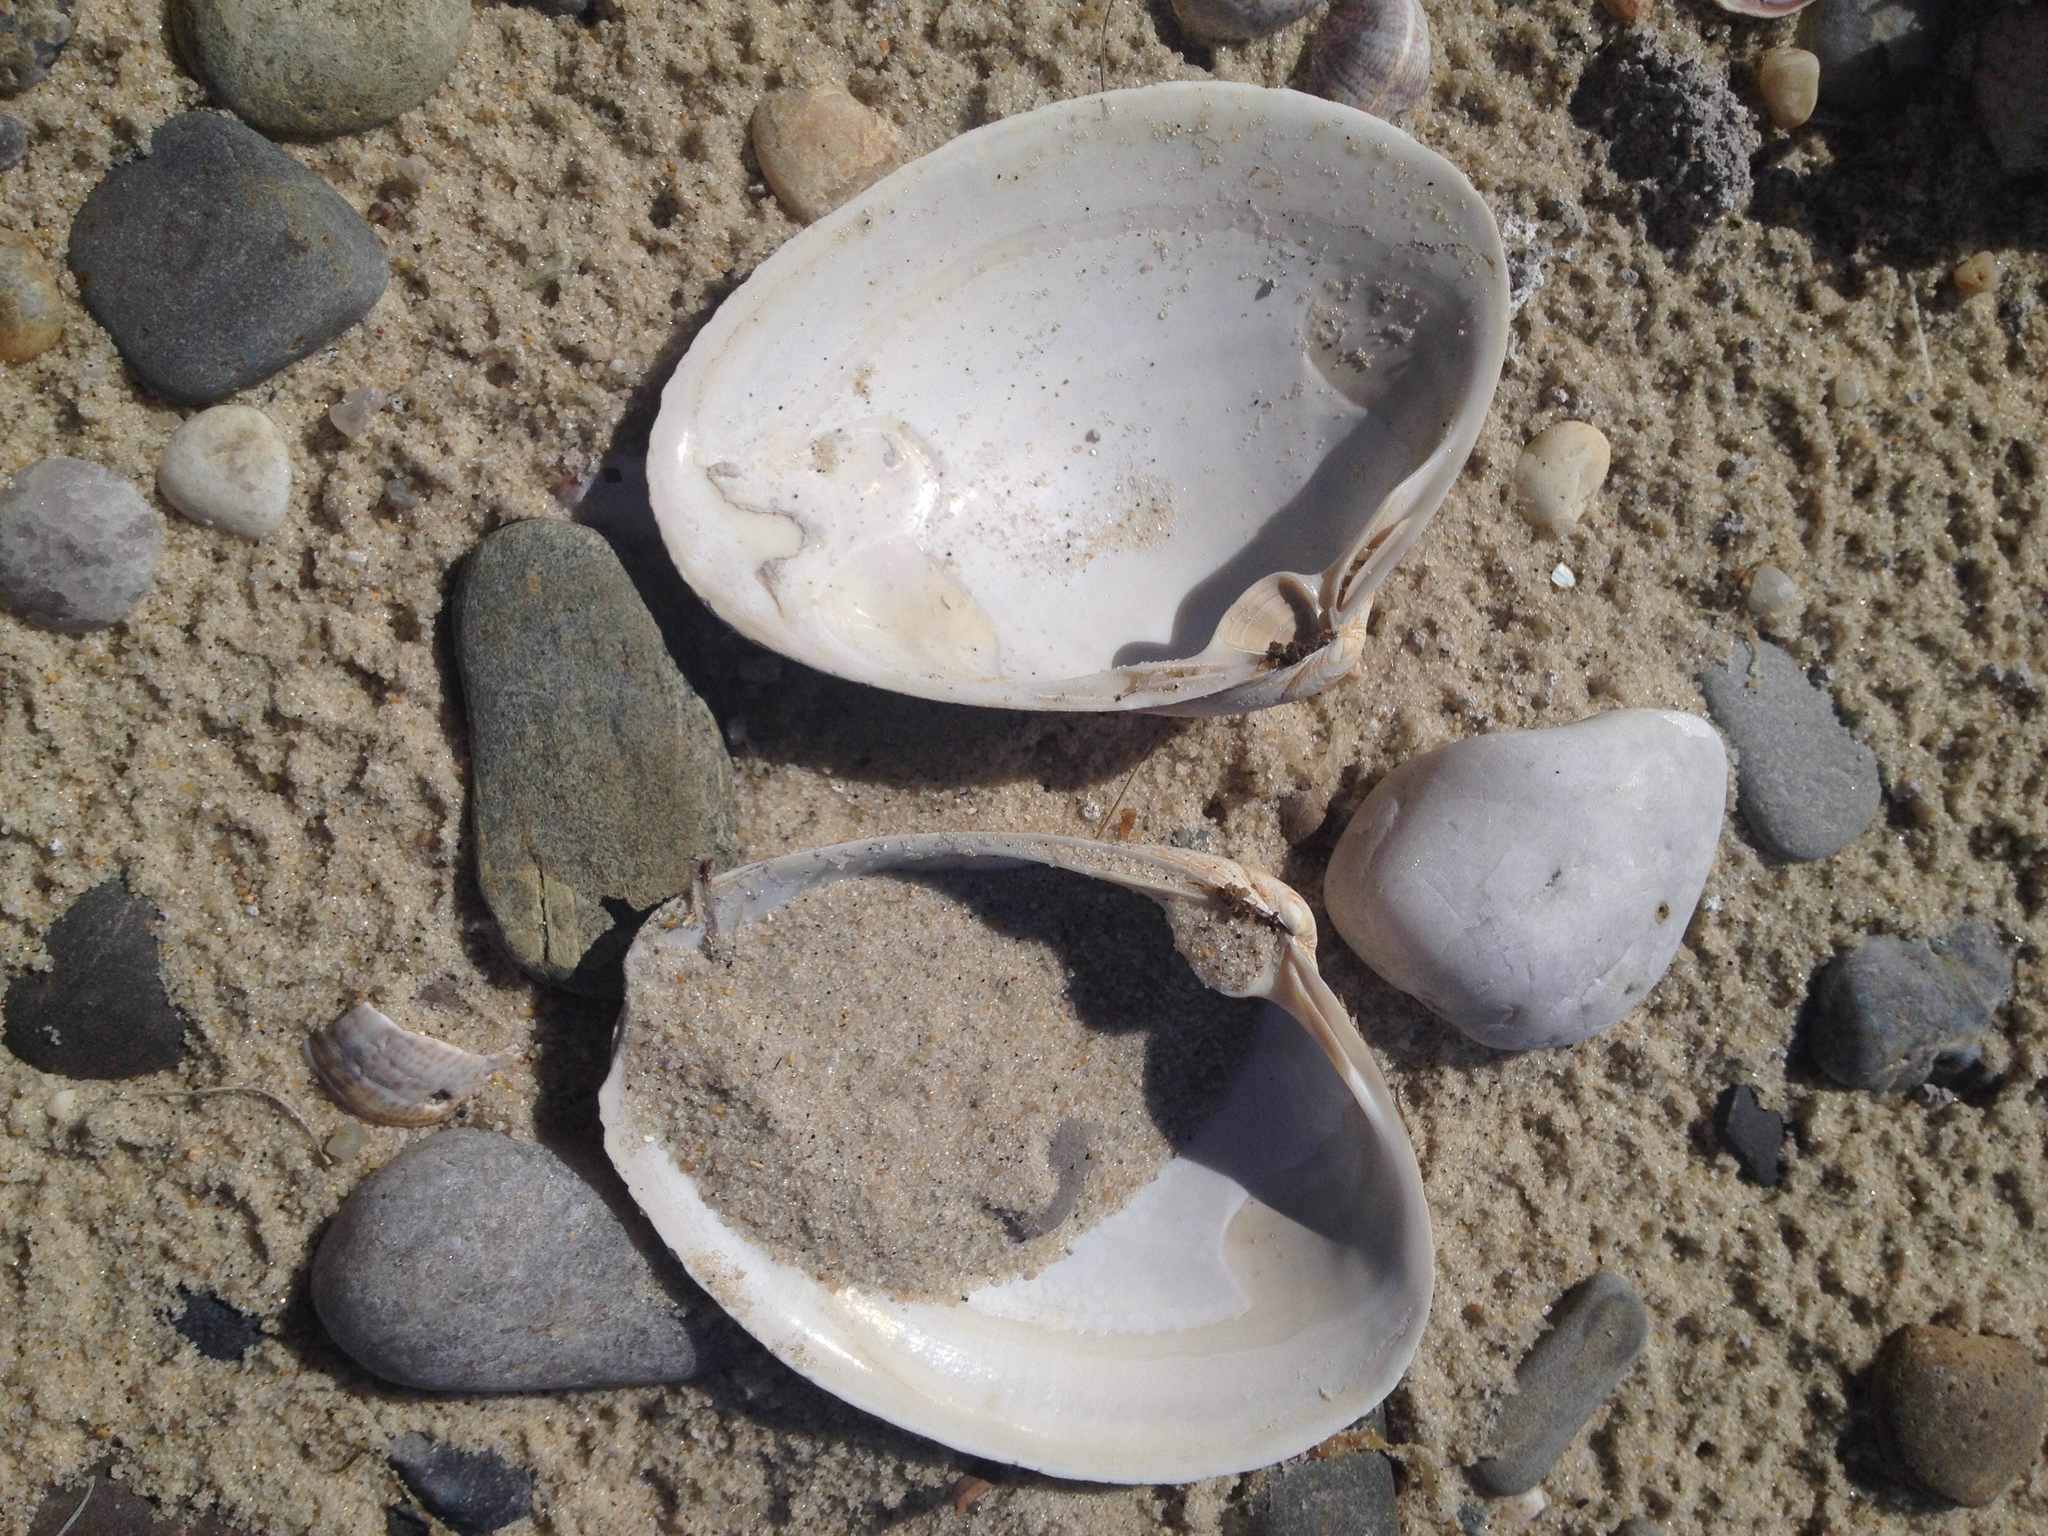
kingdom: Animalia
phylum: Mollusca
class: Bivalvia
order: Venerida
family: Mactridae
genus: Spisula
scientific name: Spisula solidissima
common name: Atlantic surf clam
